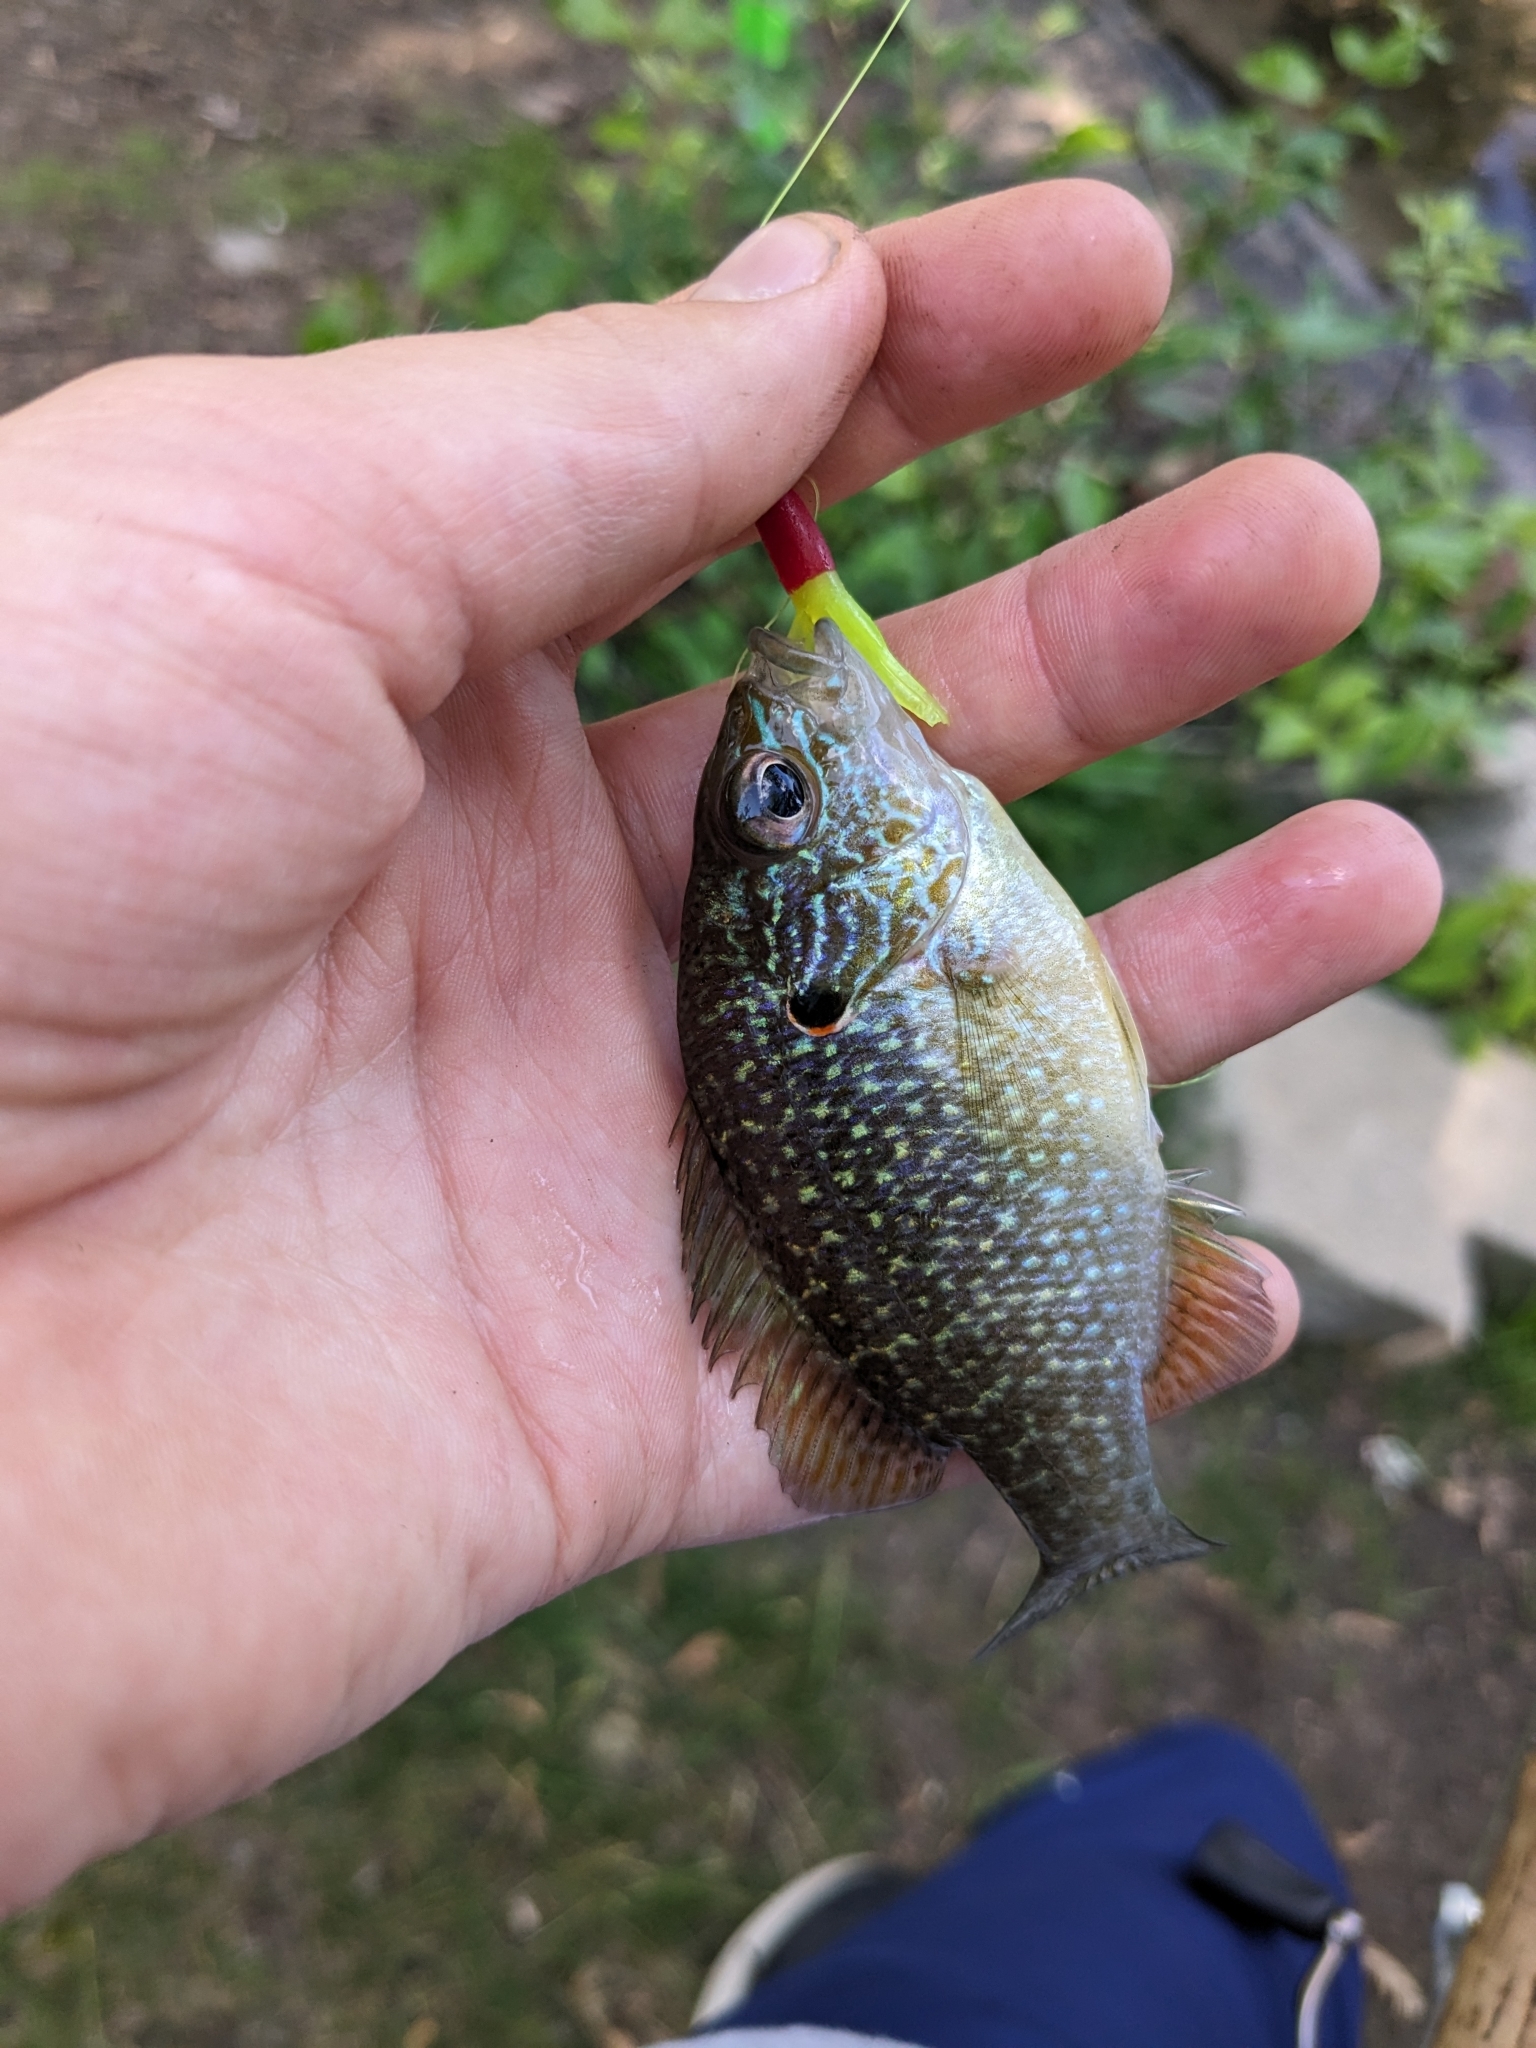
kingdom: Animalia
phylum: Chordata
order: Perciformes
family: Centrarchidae
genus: Lepomis
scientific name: Lepomis peltastes
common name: Northern sunfish
